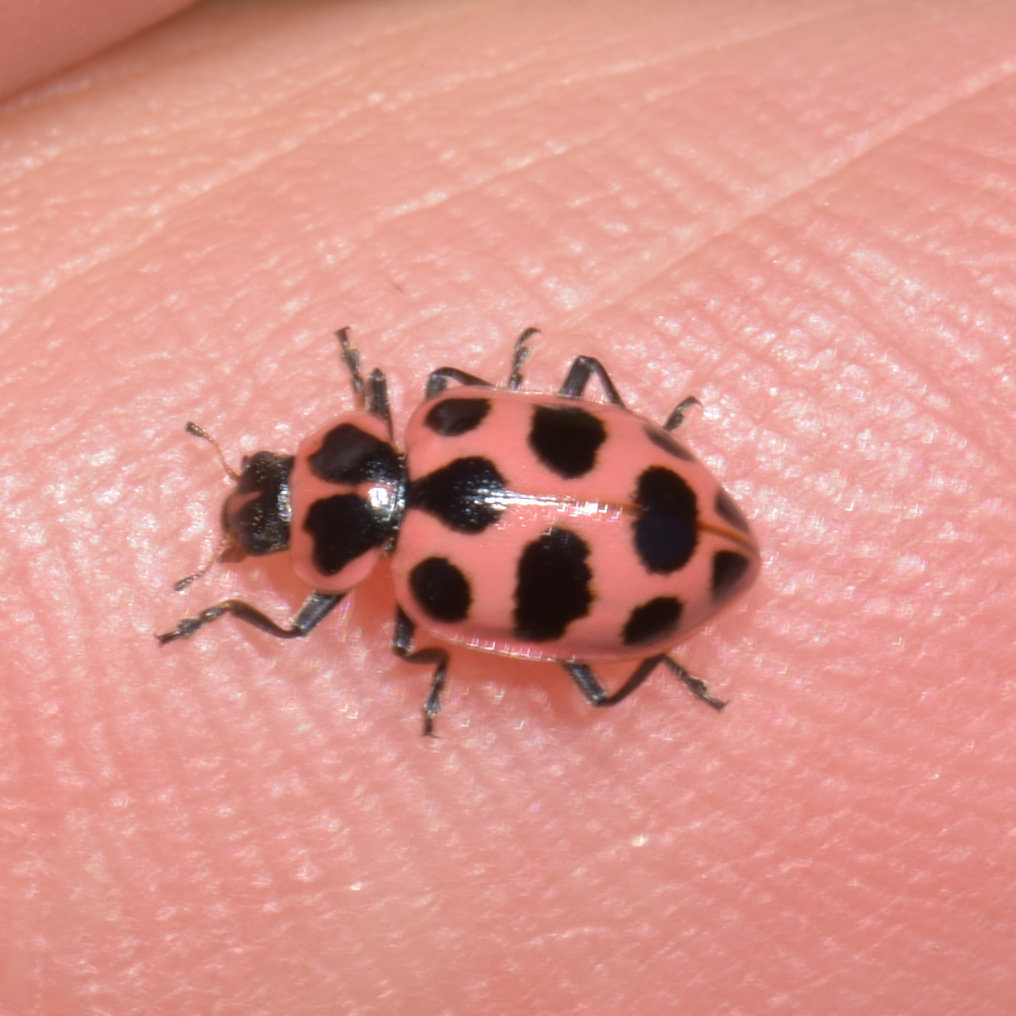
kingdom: Animalia
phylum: Arthropoda
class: Insecta
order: Coleoptera
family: Coccinellidae
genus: Coleomegilla
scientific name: Coleomegilla maculata
